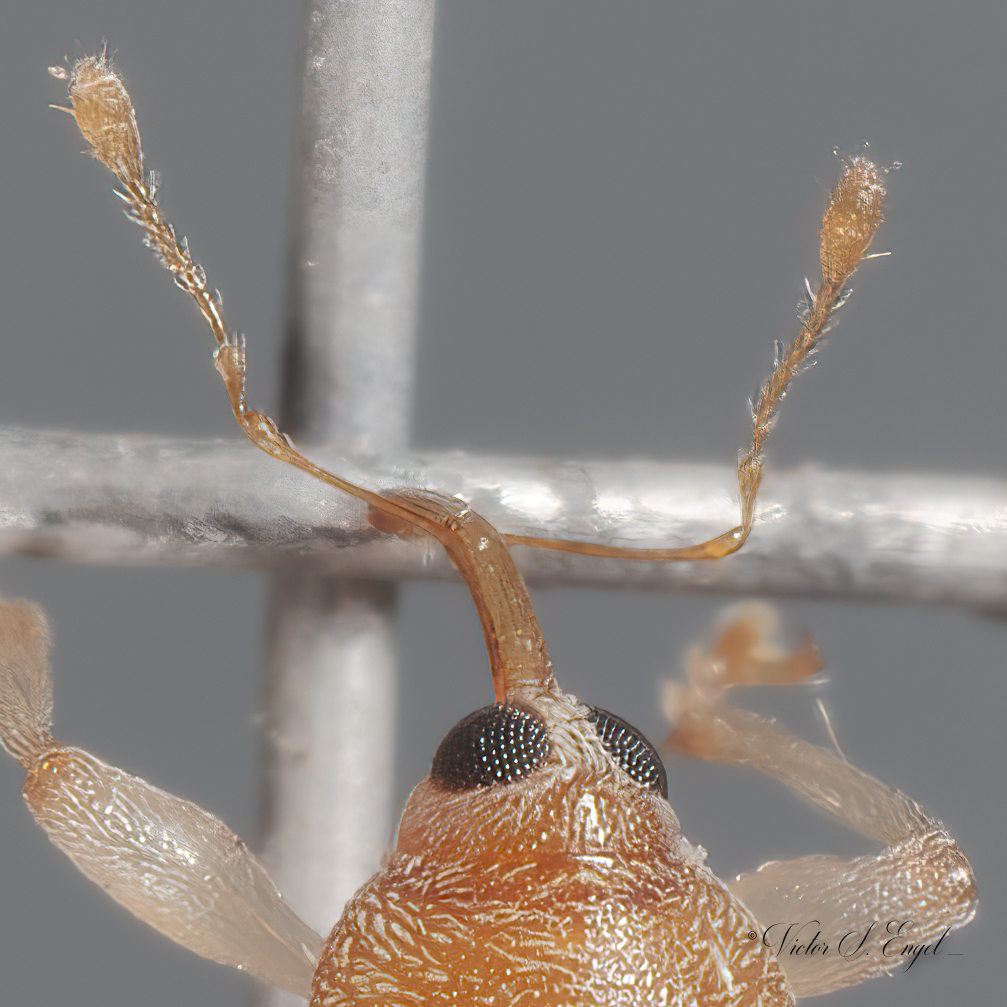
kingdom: Animalia
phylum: Arthropoda
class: Insecta
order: Coleoptera
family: Curculionidae
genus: Lignyodes
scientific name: Lignyodes helvolus
